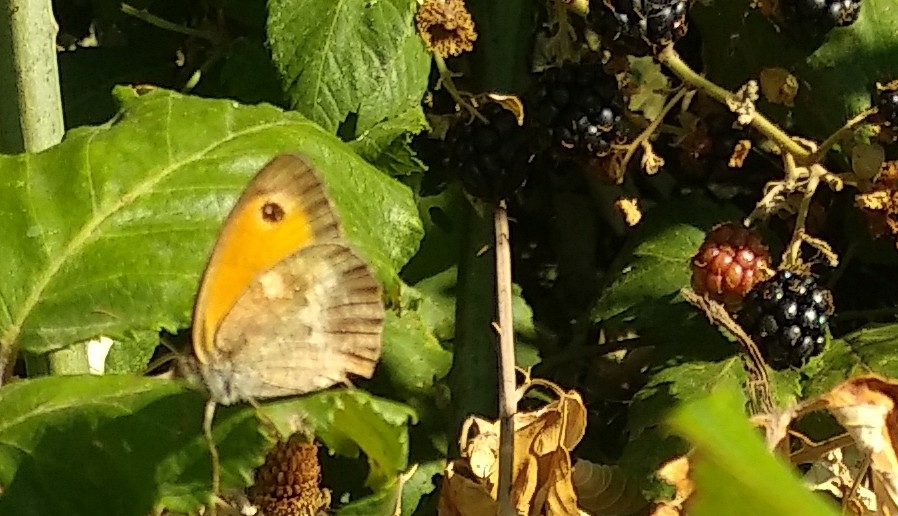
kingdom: Animalia
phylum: Arthropoda
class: Insecta
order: Lepidoptera
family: Nymphalidae
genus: Pyronia
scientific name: Pyronia tithonus
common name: Gatekeeper
